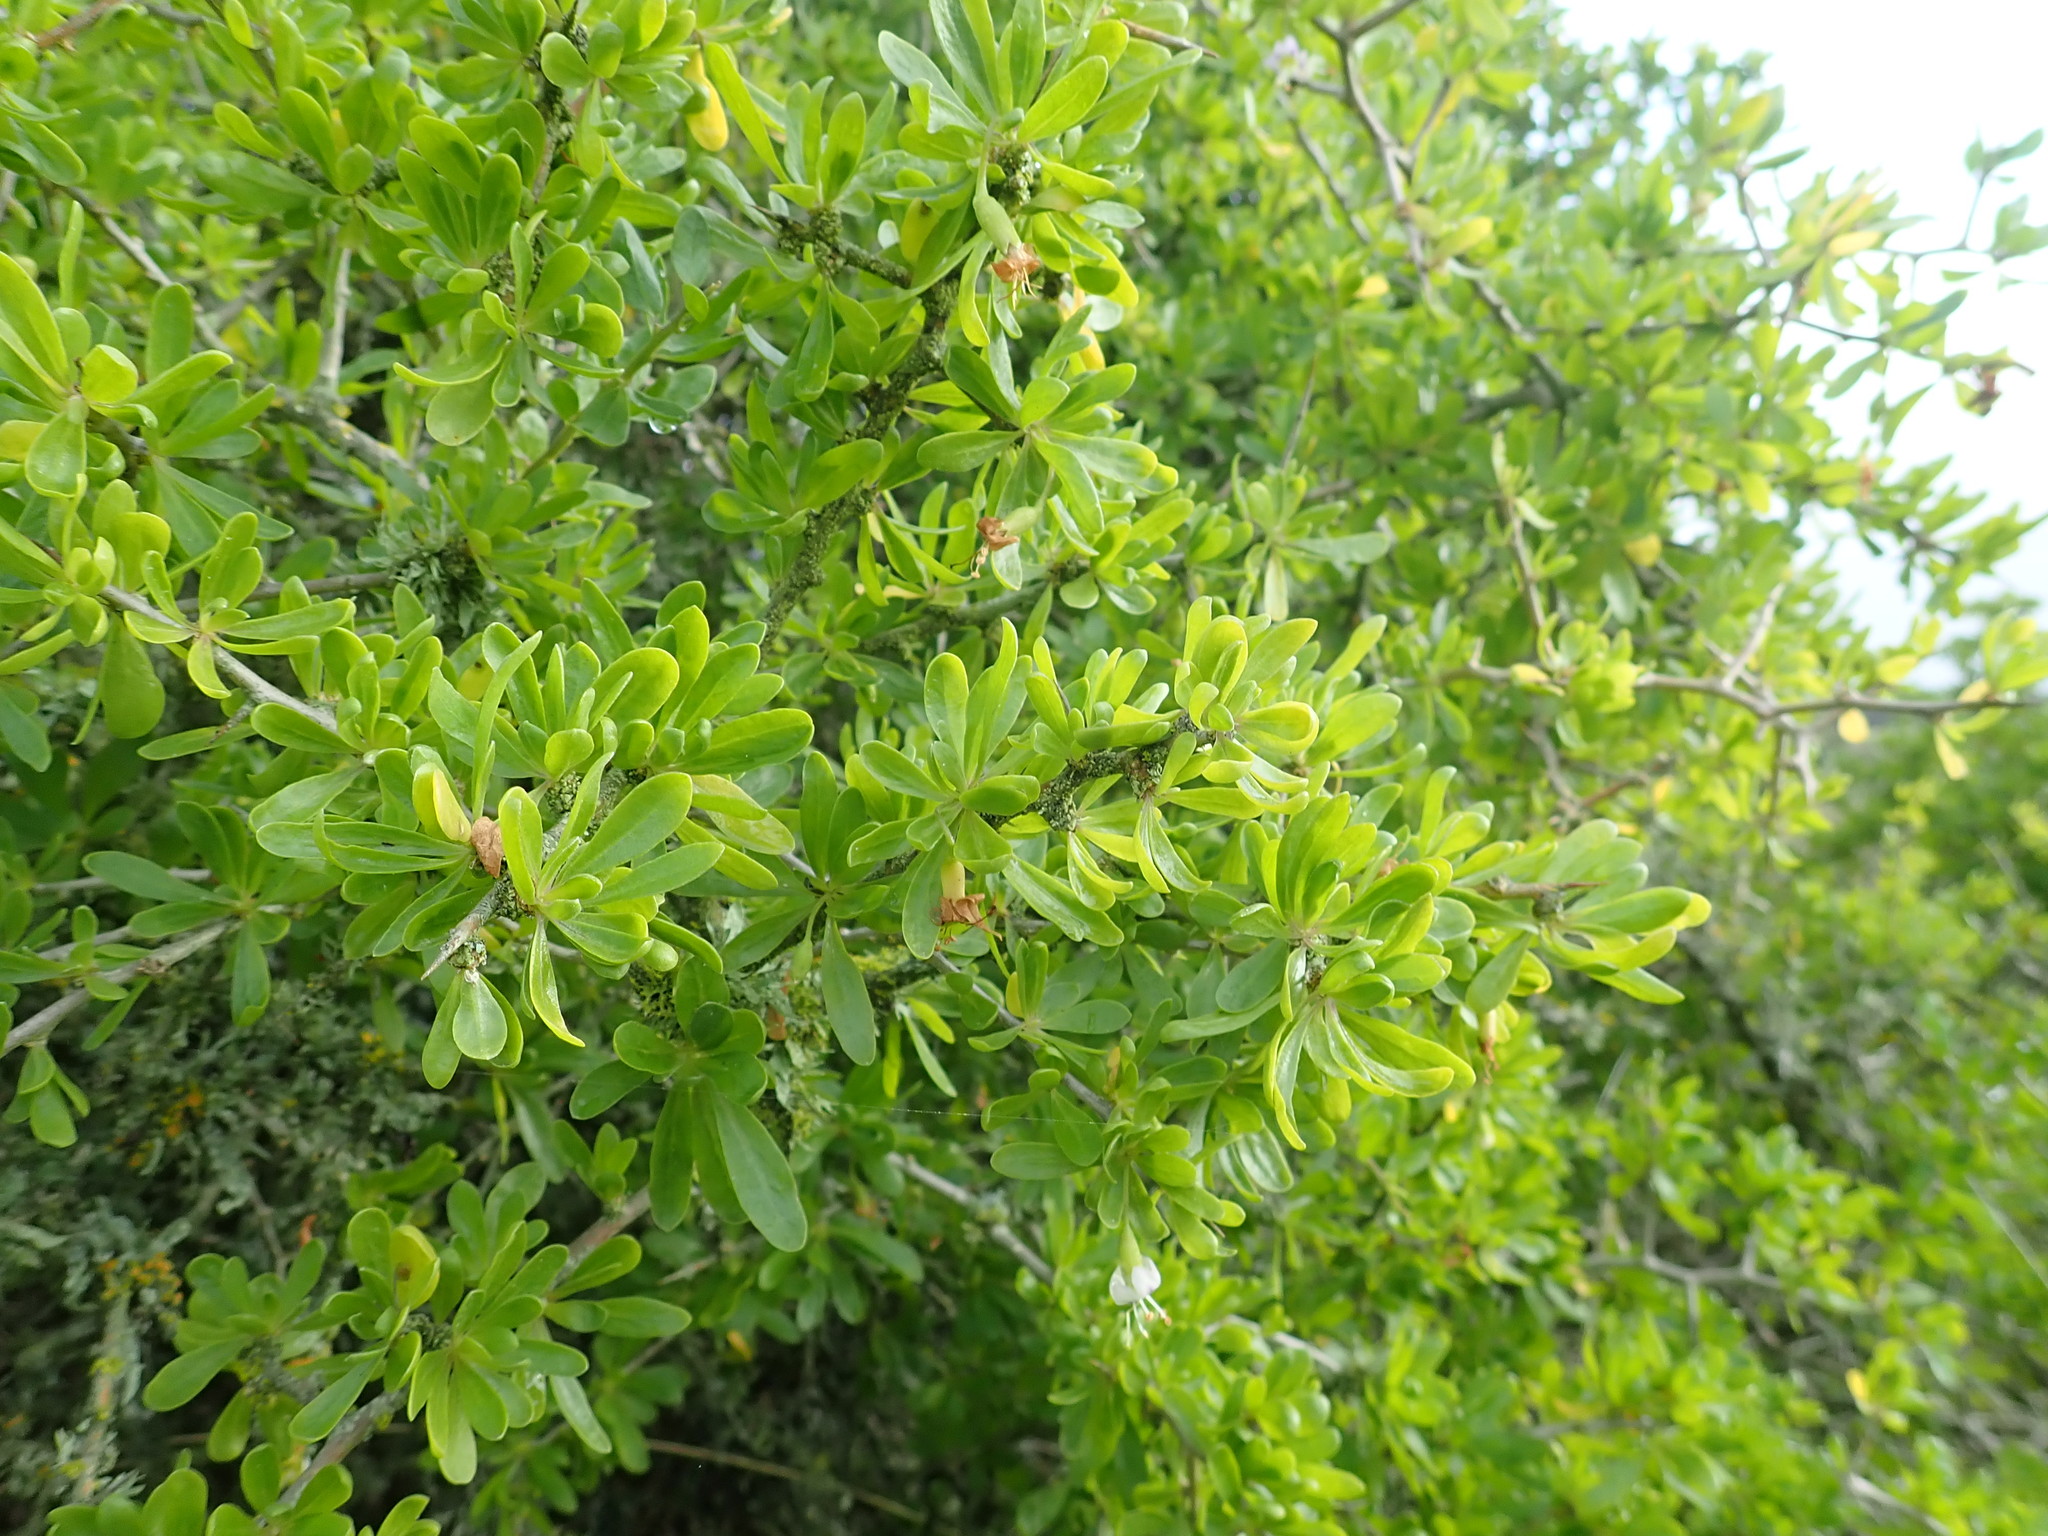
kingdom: Plantae
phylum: Tracheophyta
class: Magnoliopsida
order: Solanales
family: Solanaceae
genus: Lycium
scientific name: Lycium ferocissimum
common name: African boxthorn
